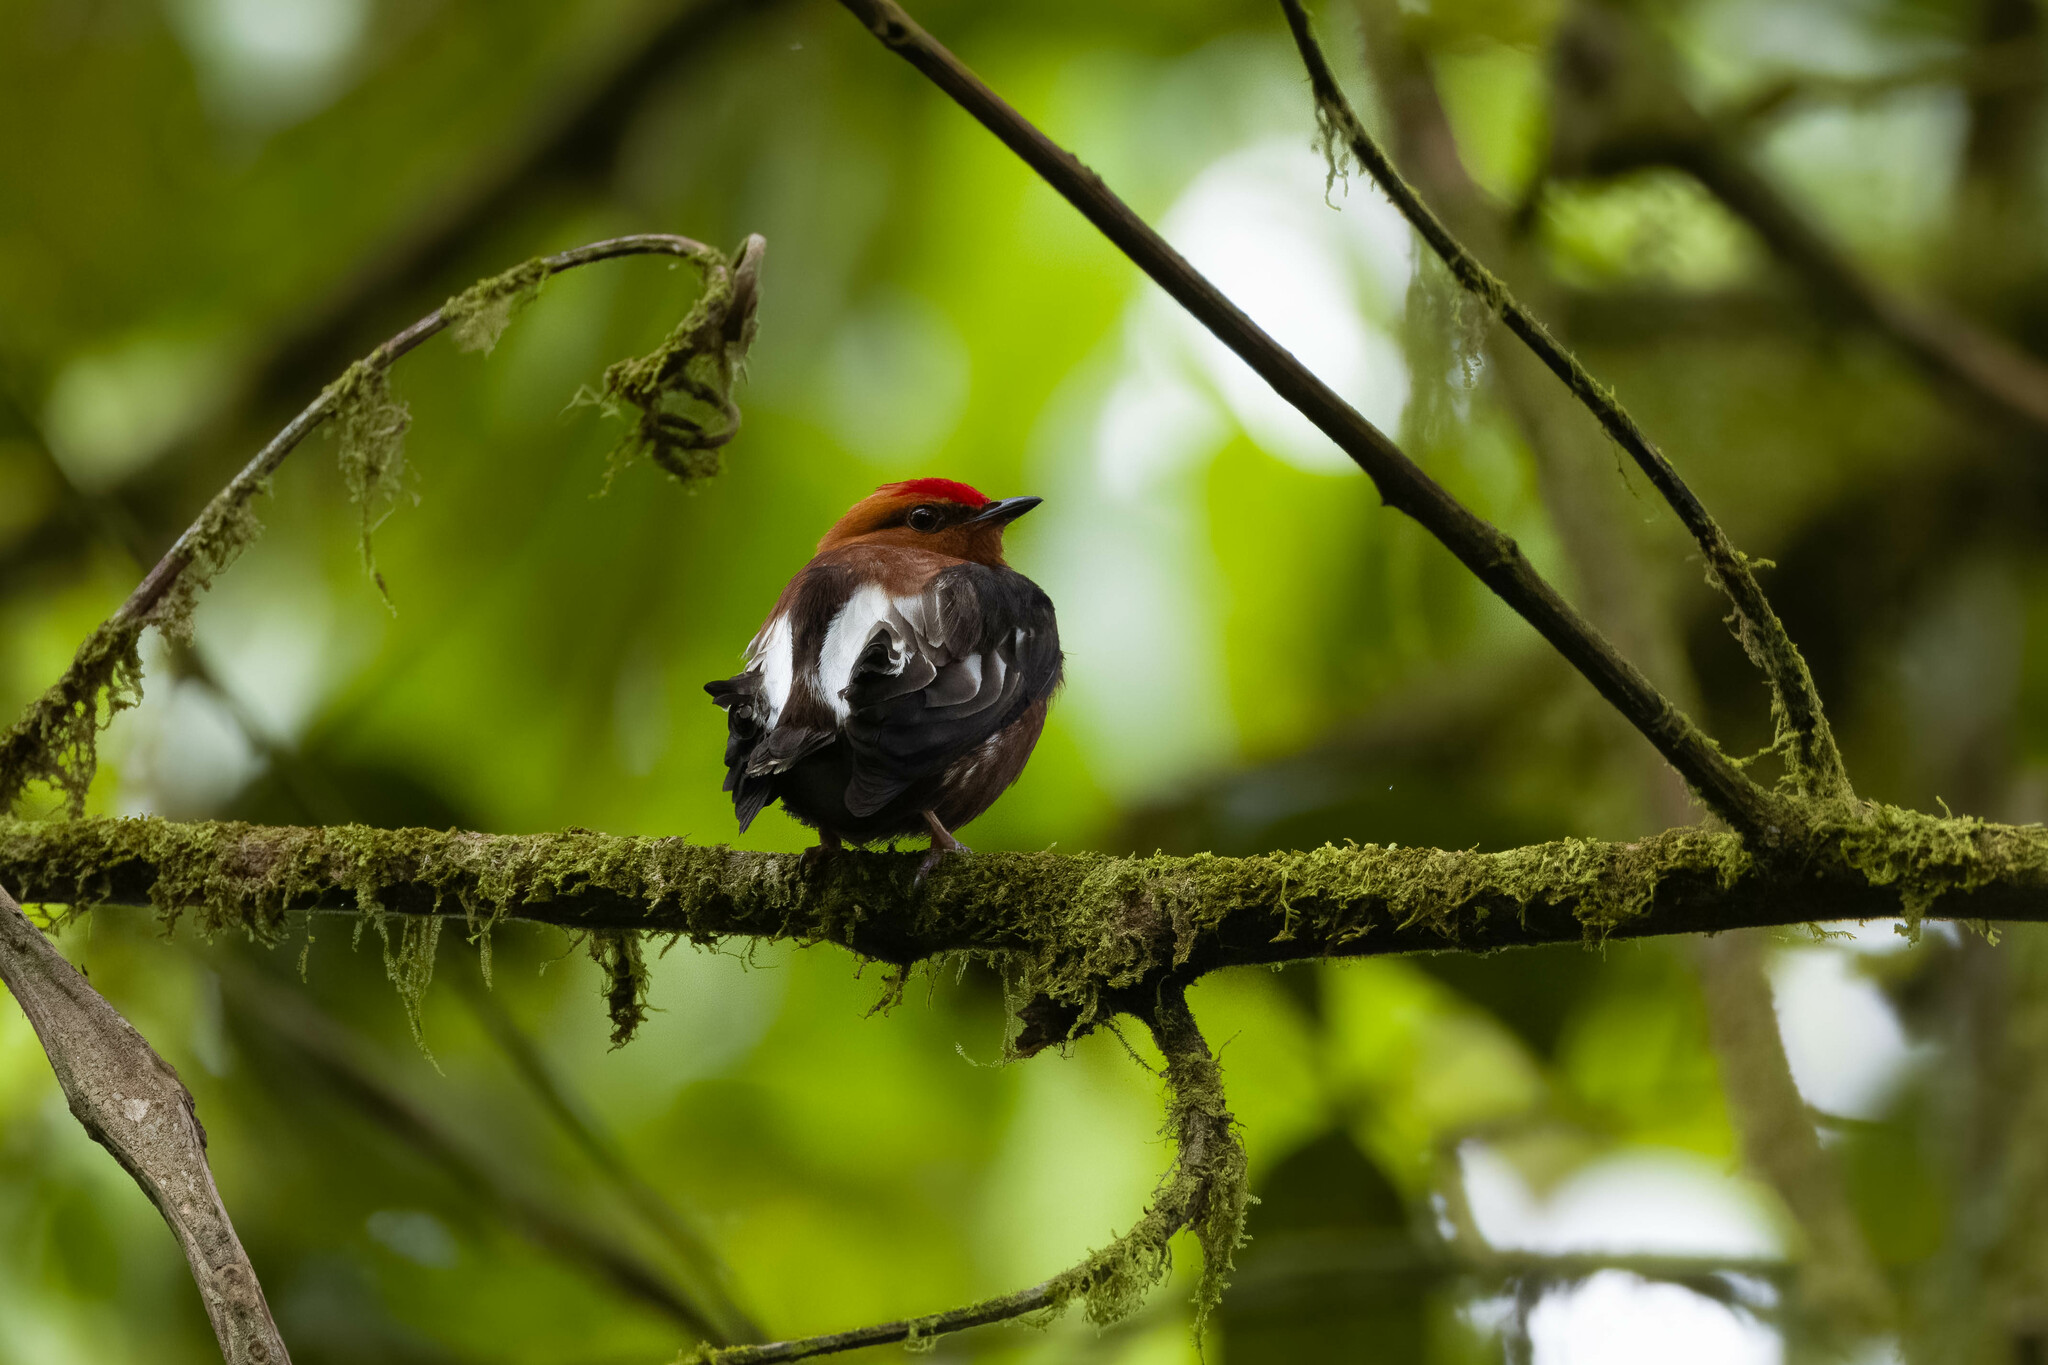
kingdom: Animalia
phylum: Chordata
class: Aves
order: Passeriformes
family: Pipridae
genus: Machaeropterus
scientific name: Machaeropterus deliciosus
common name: Club-winged manakin
